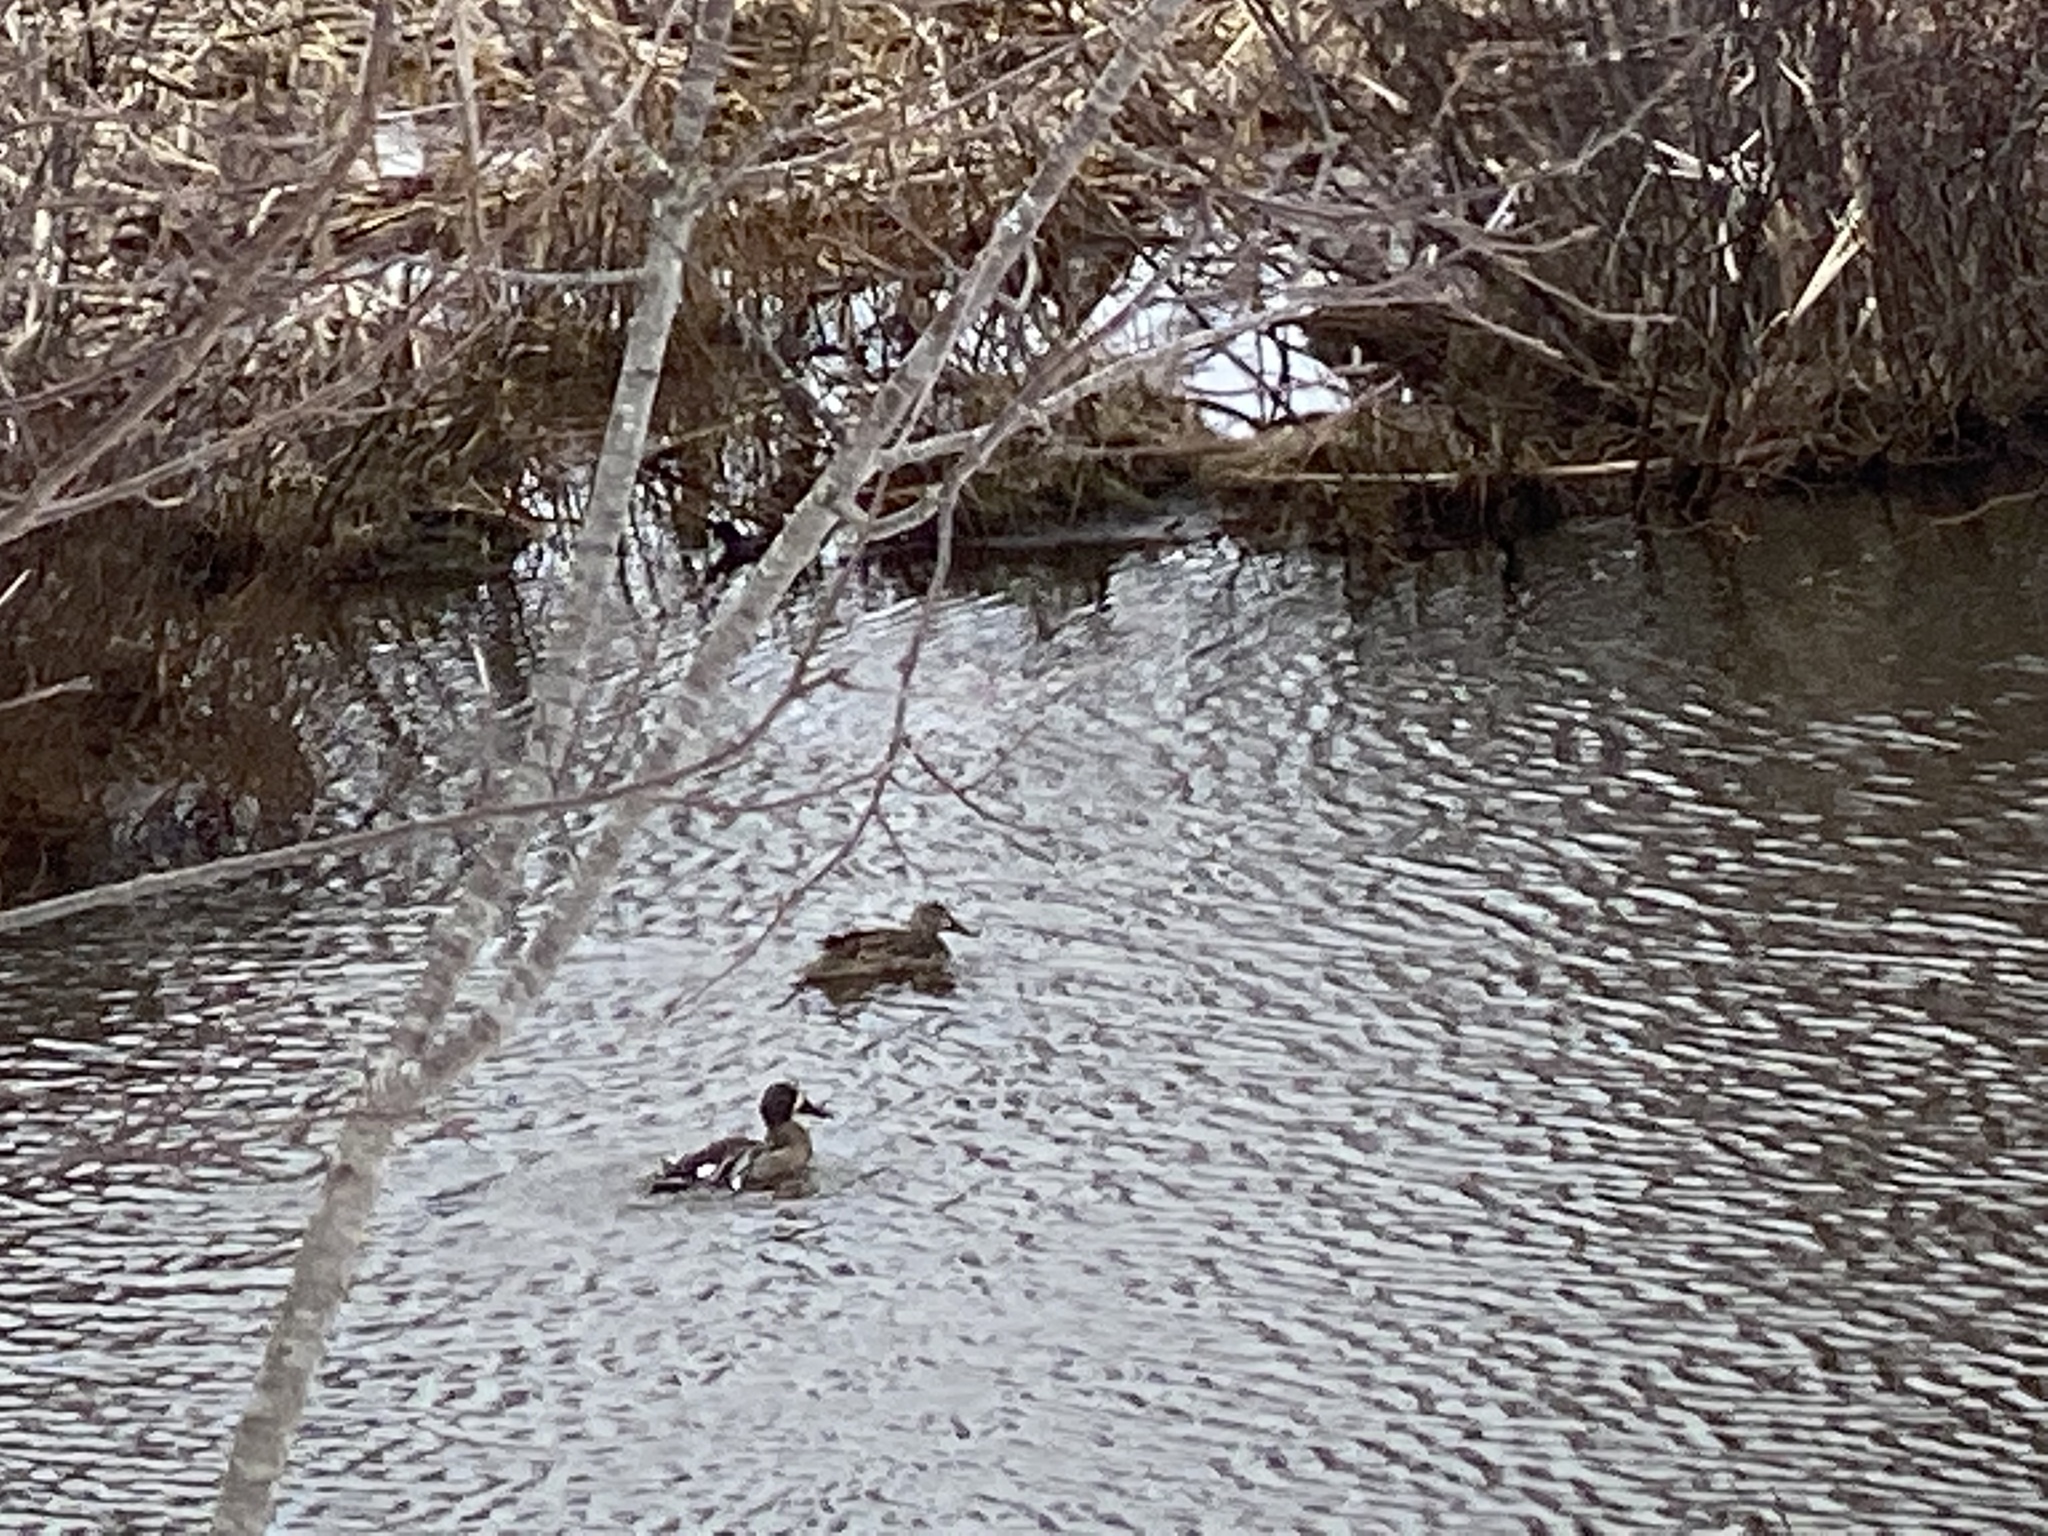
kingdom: Animalia
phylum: Chordata
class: Aves
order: Anseriformes
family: Anatidae
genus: Spatula
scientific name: Spatula discors
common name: Blue-winged teal
